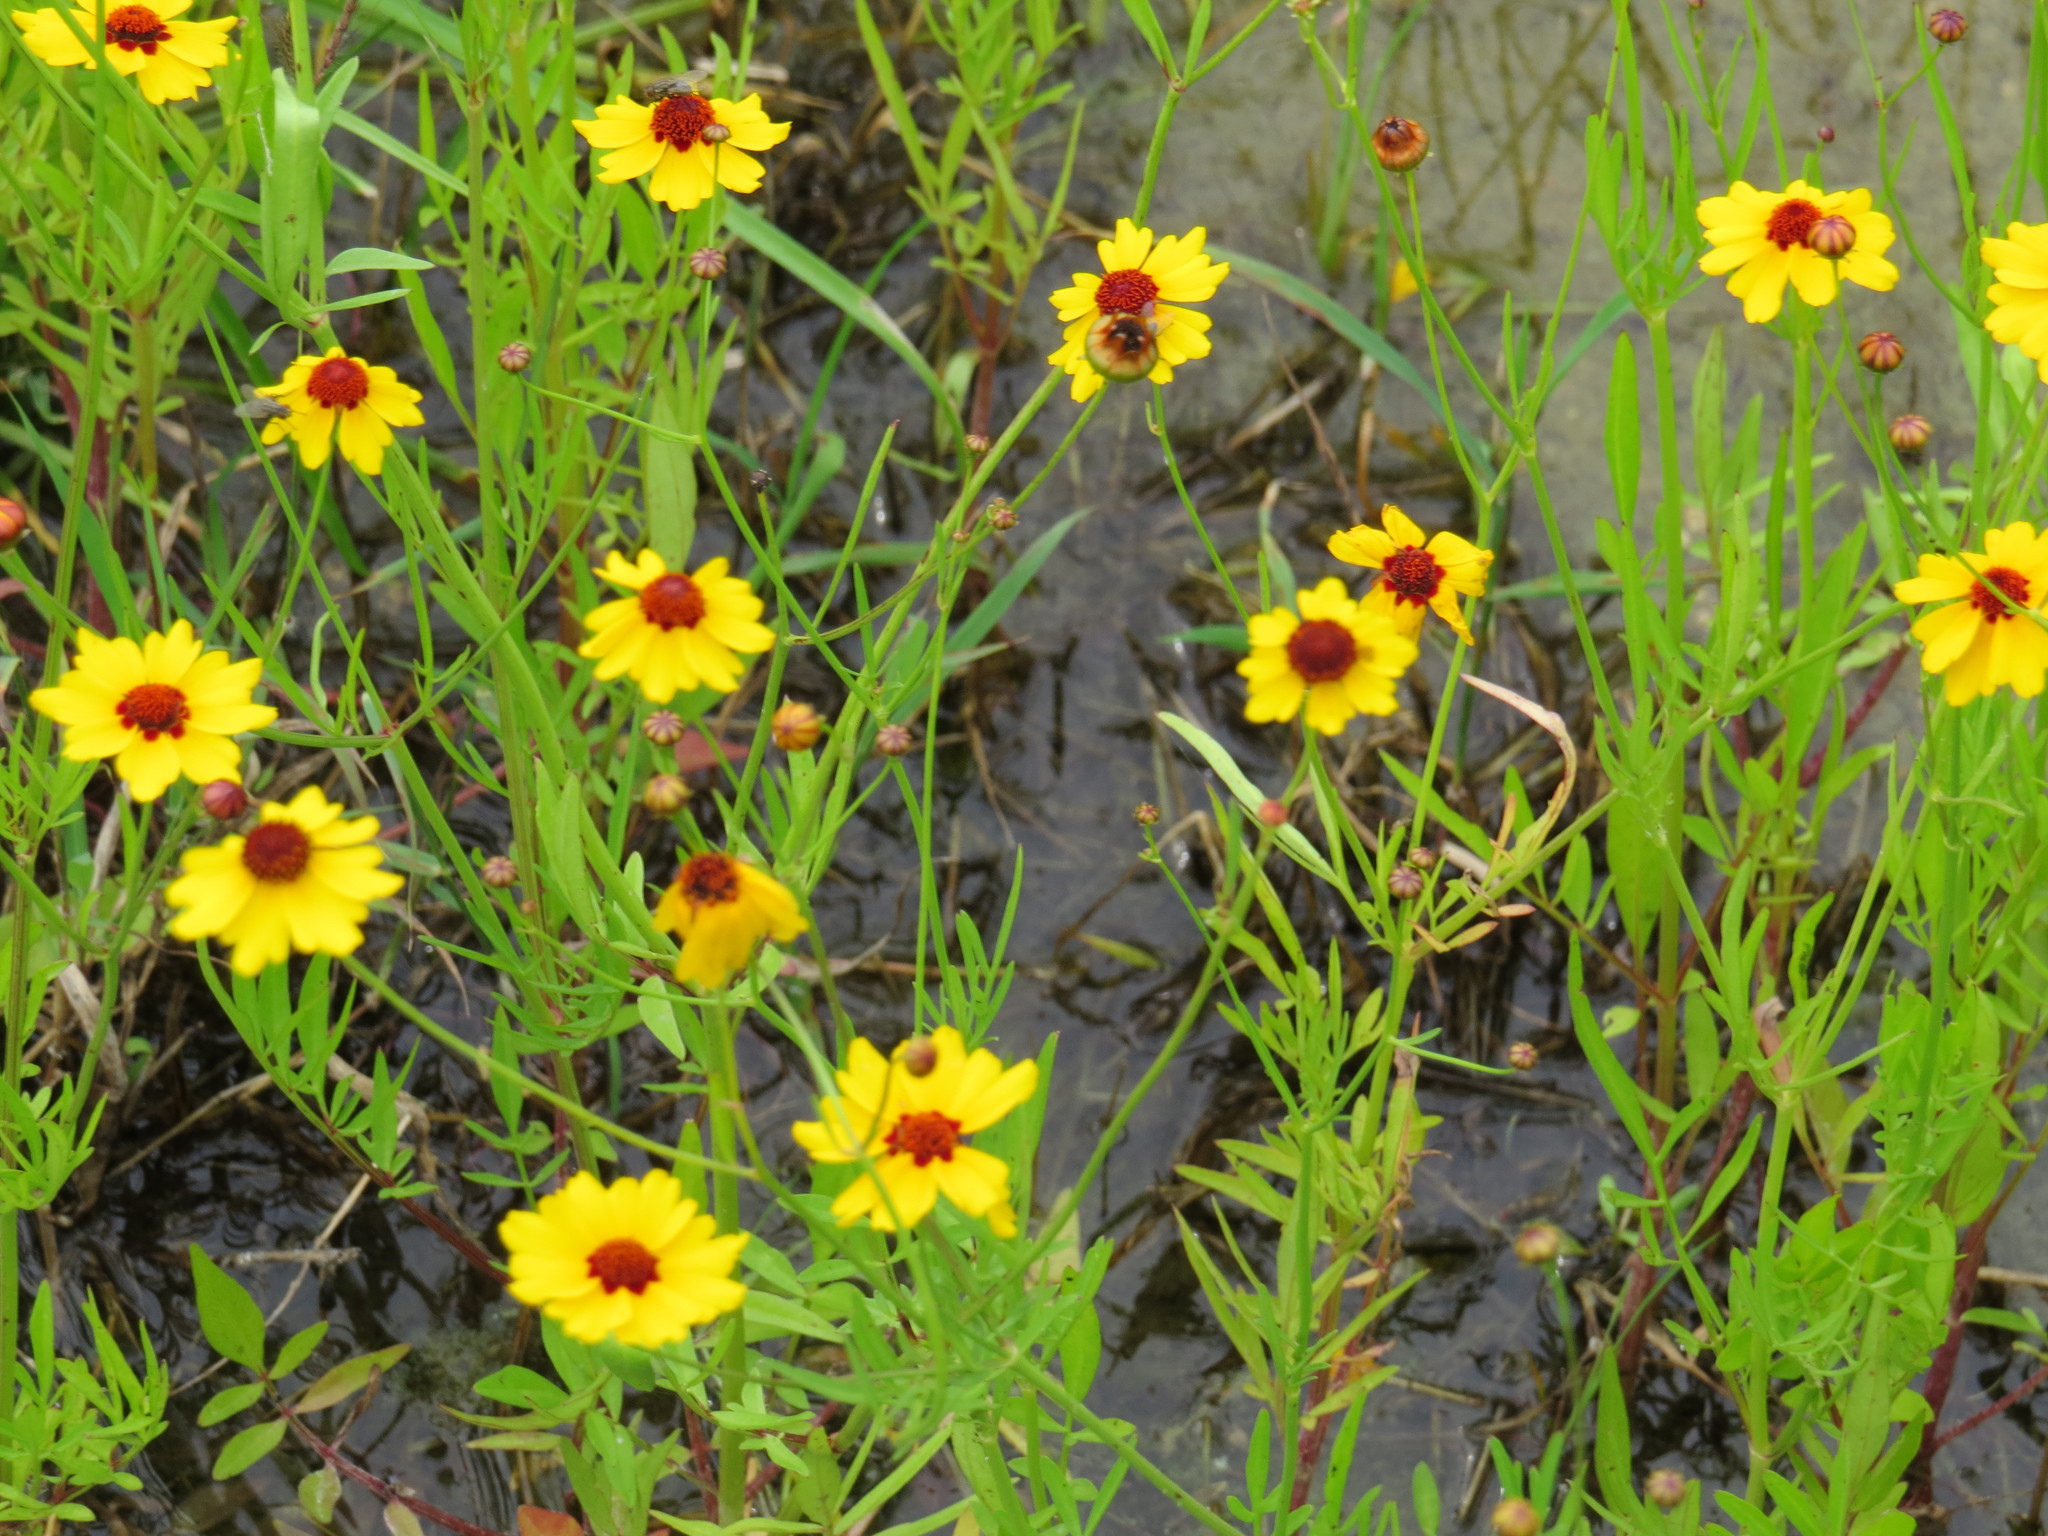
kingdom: Plantae
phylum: Tracheophyta
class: Magnoliopsida
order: Asterales
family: Asteraceae
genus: Coreopsis
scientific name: Coreopsis tinctoria
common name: Garden tickseed
